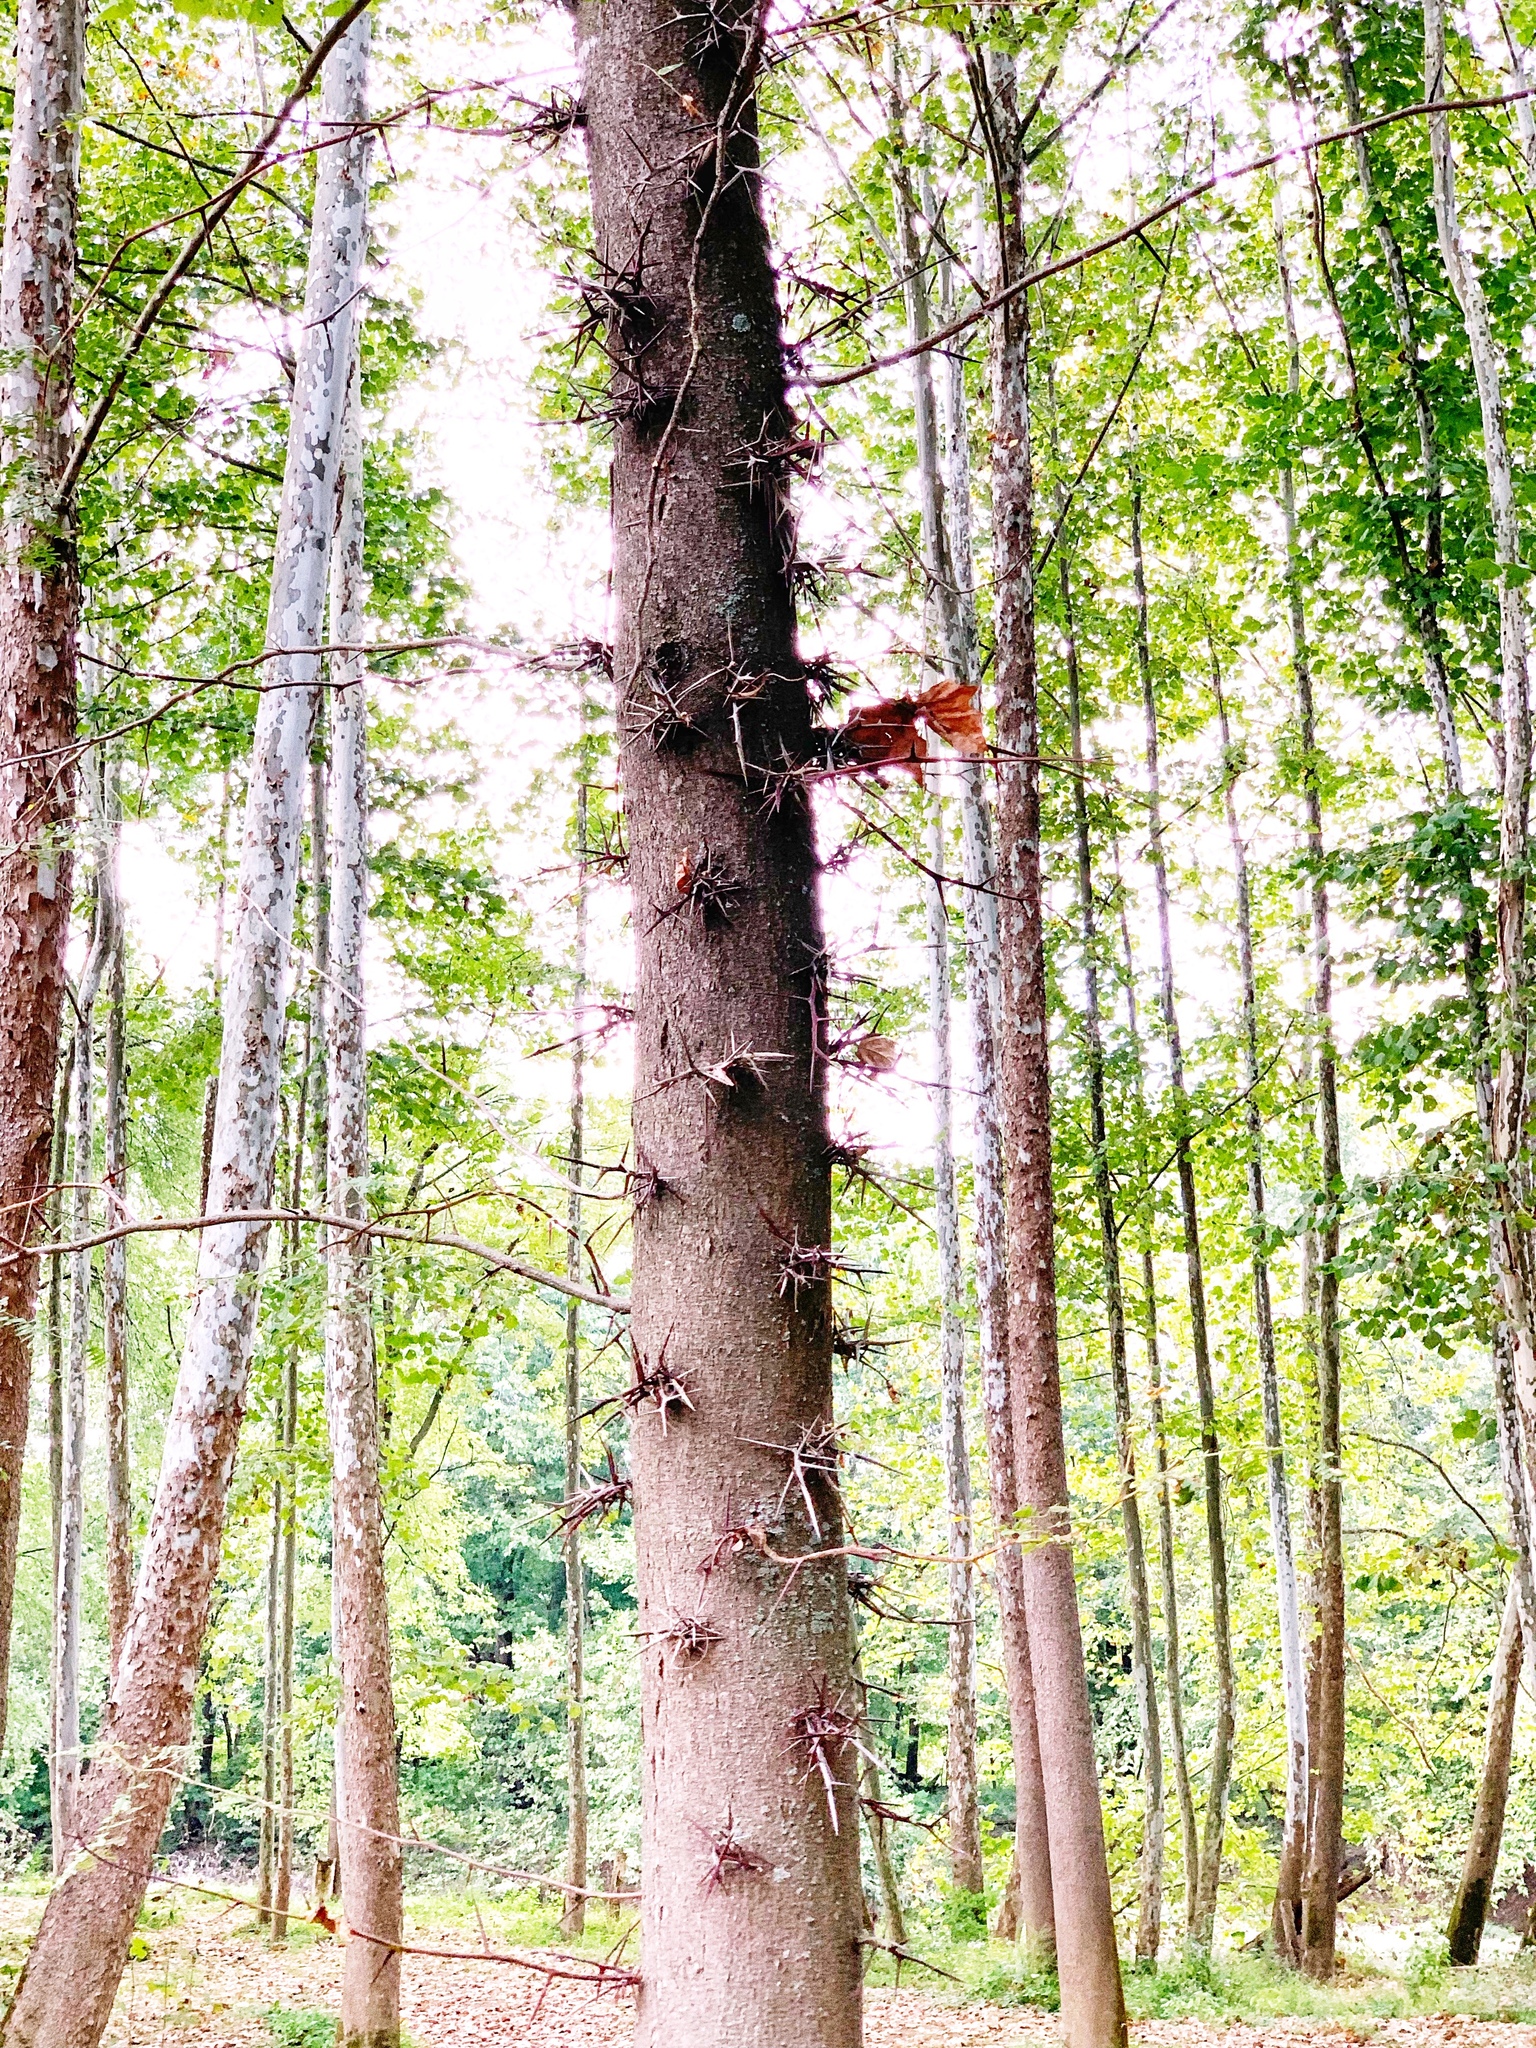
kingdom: Plantae
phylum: Tracheophyta
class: Magnoliopsida
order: Fabales
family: Fabaceae
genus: Gleditsia
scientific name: Gleditsia triacanthos
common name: Common honeylocust
